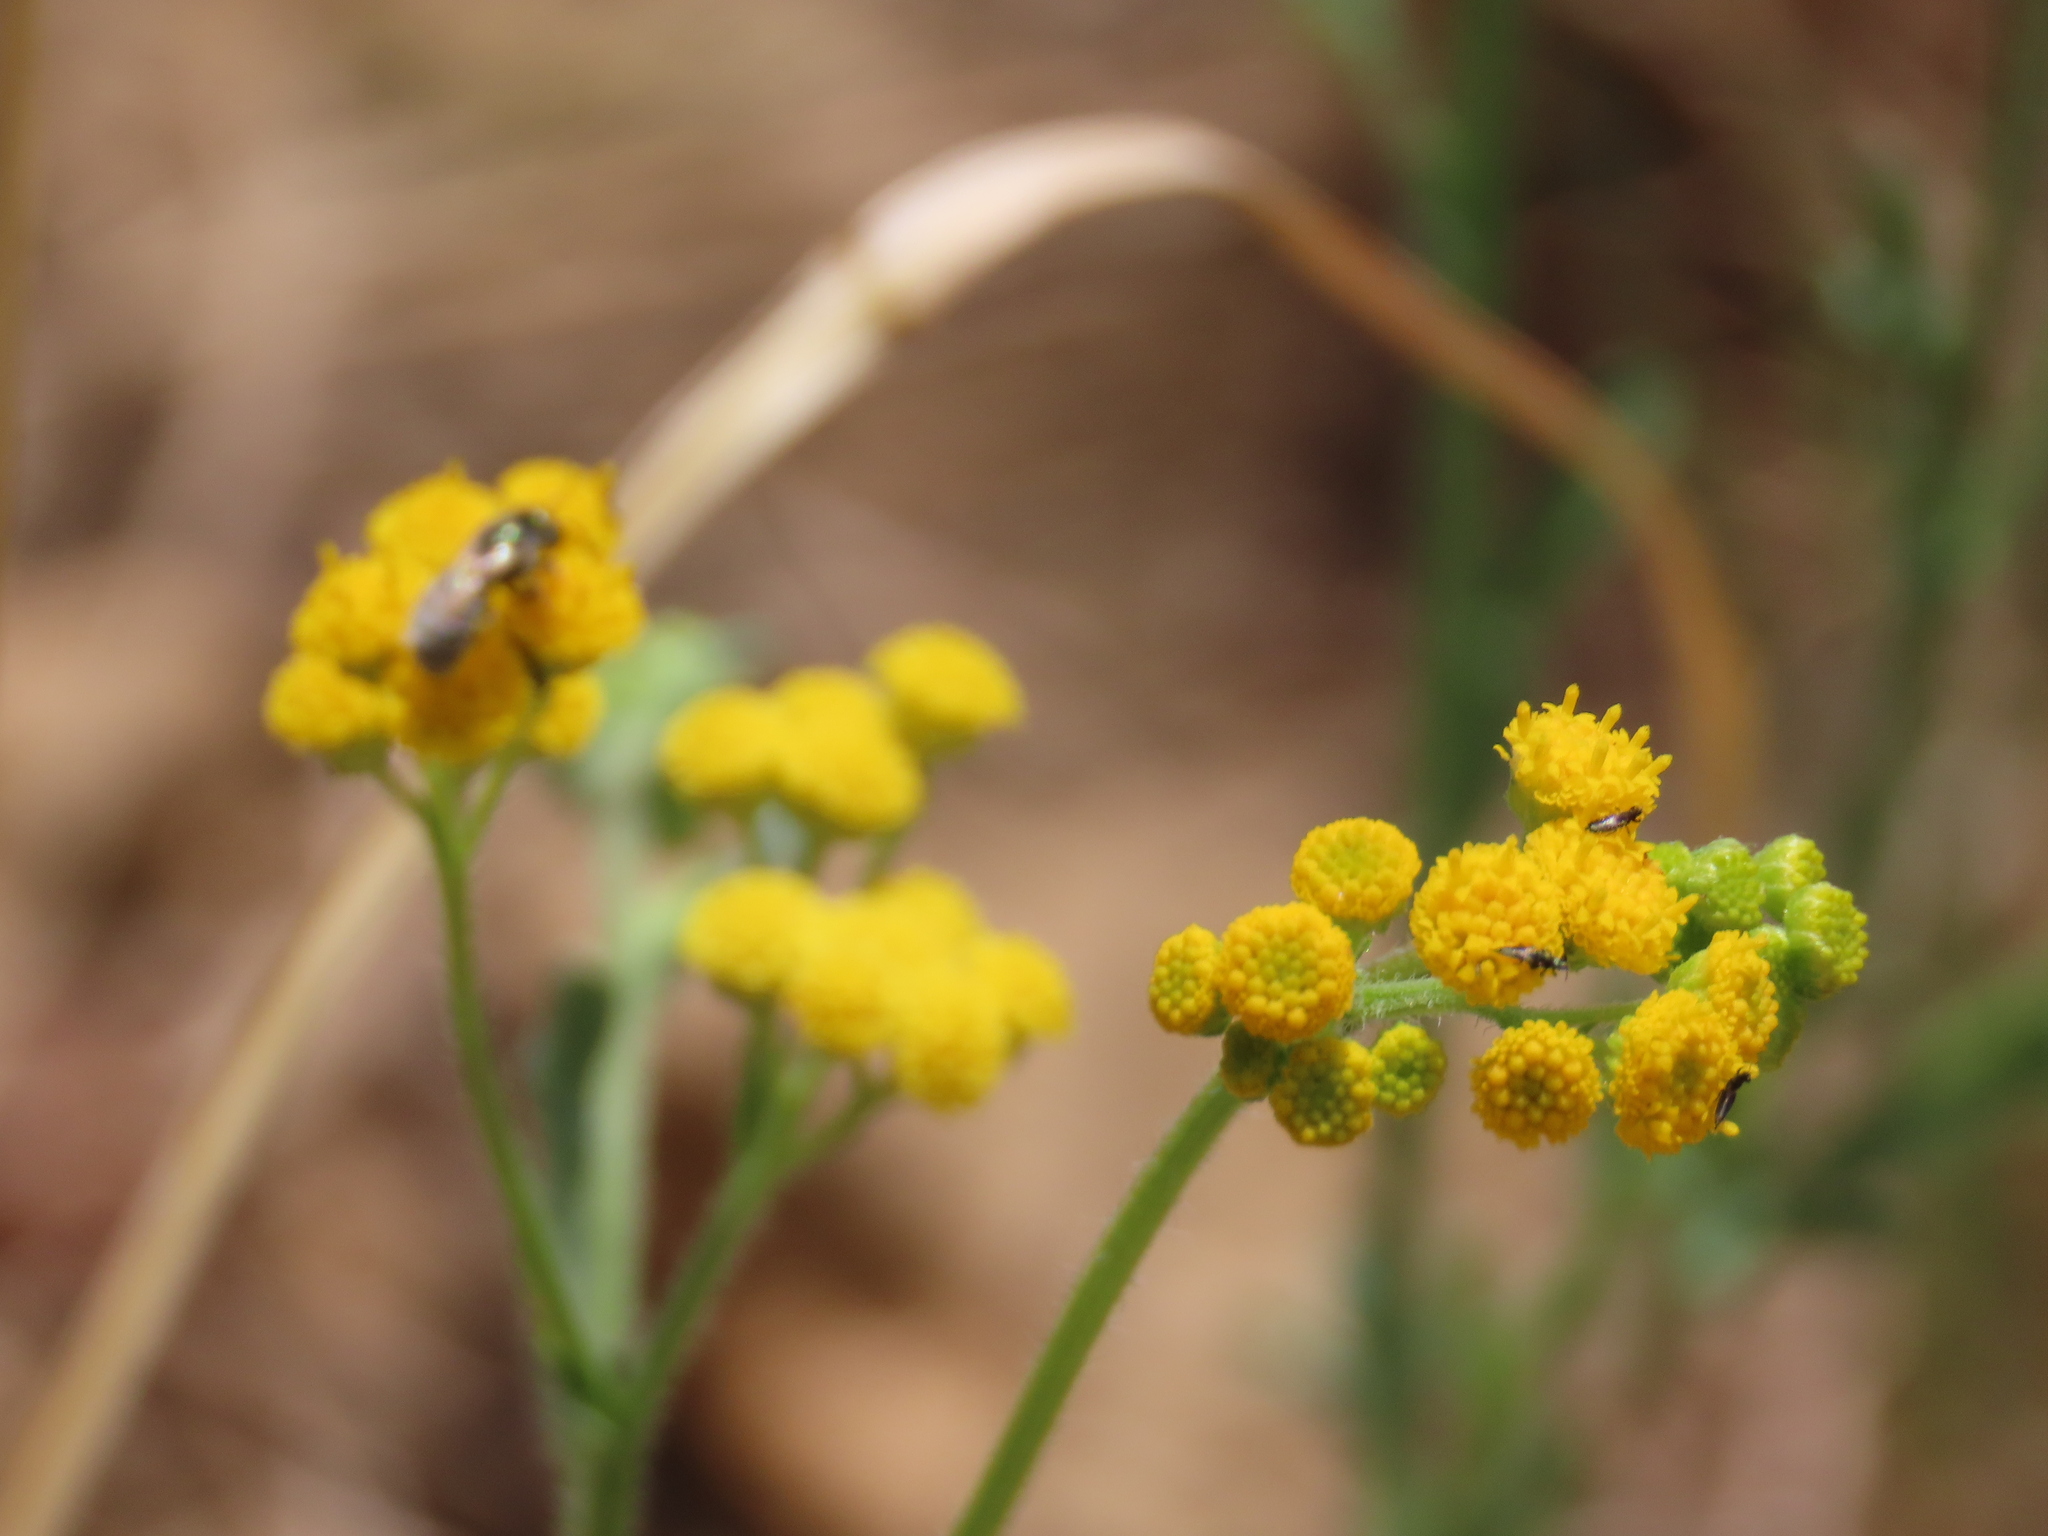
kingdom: Plantae
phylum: Tracheophyta
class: Magnoliopsida
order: Asterales
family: Asteraceae
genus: Nidorella
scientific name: Nidorella resedifolia
